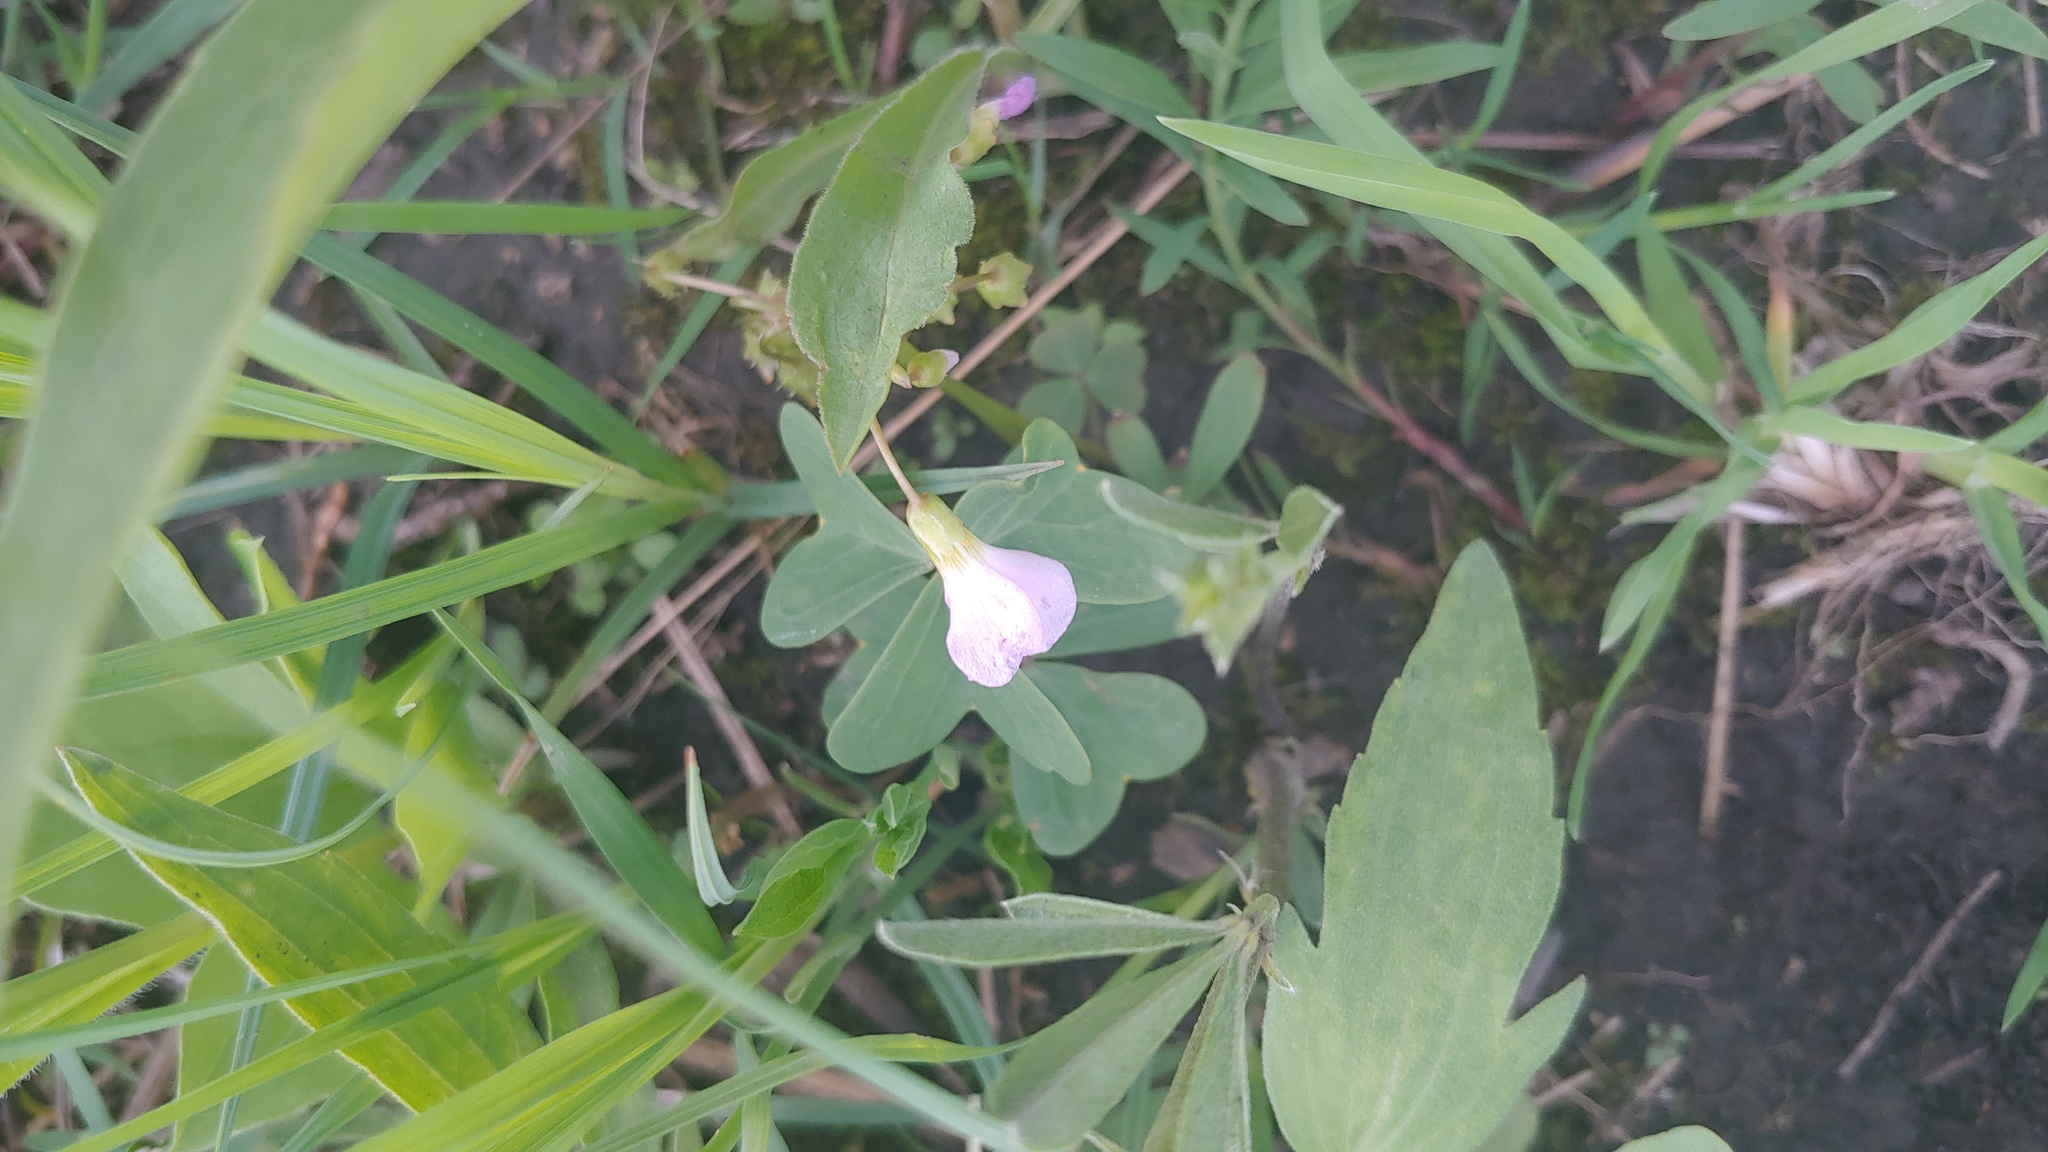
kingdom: Plantae
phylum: Tracheophyta
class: Magnoliopsida
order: Oxalidales
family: Oxalidaceae
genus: Oxalis
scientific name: Oxalis violacea
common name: Violet wood-sorrel
